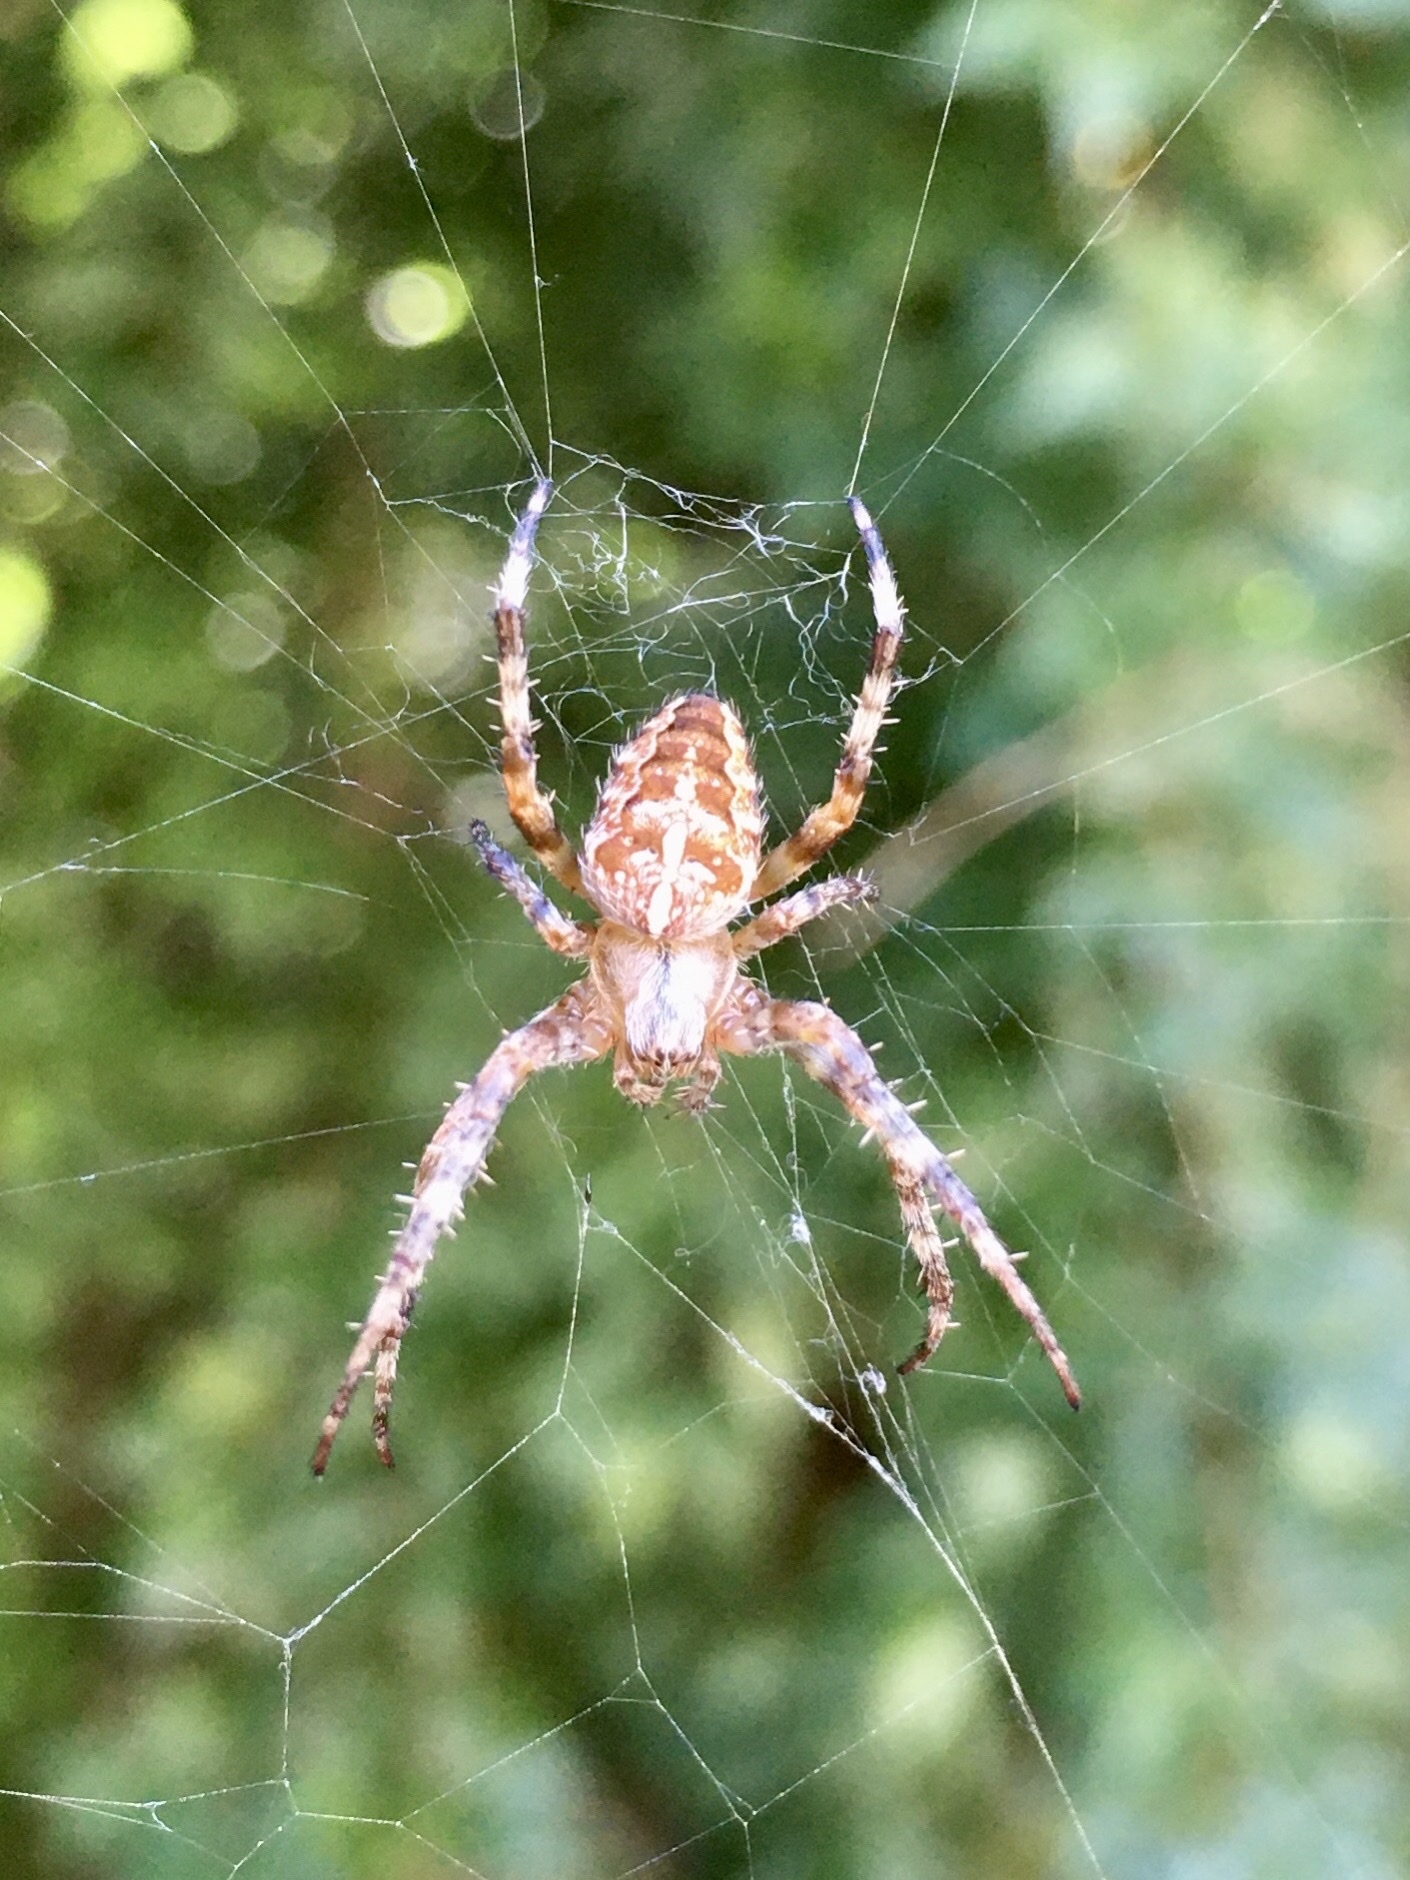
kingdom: Animalia
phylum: Arthropoda
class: Arachnida
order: Araneae
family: Araneidae
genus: Araneus
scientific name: Araneus diadematus
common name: Cross orbweaver
